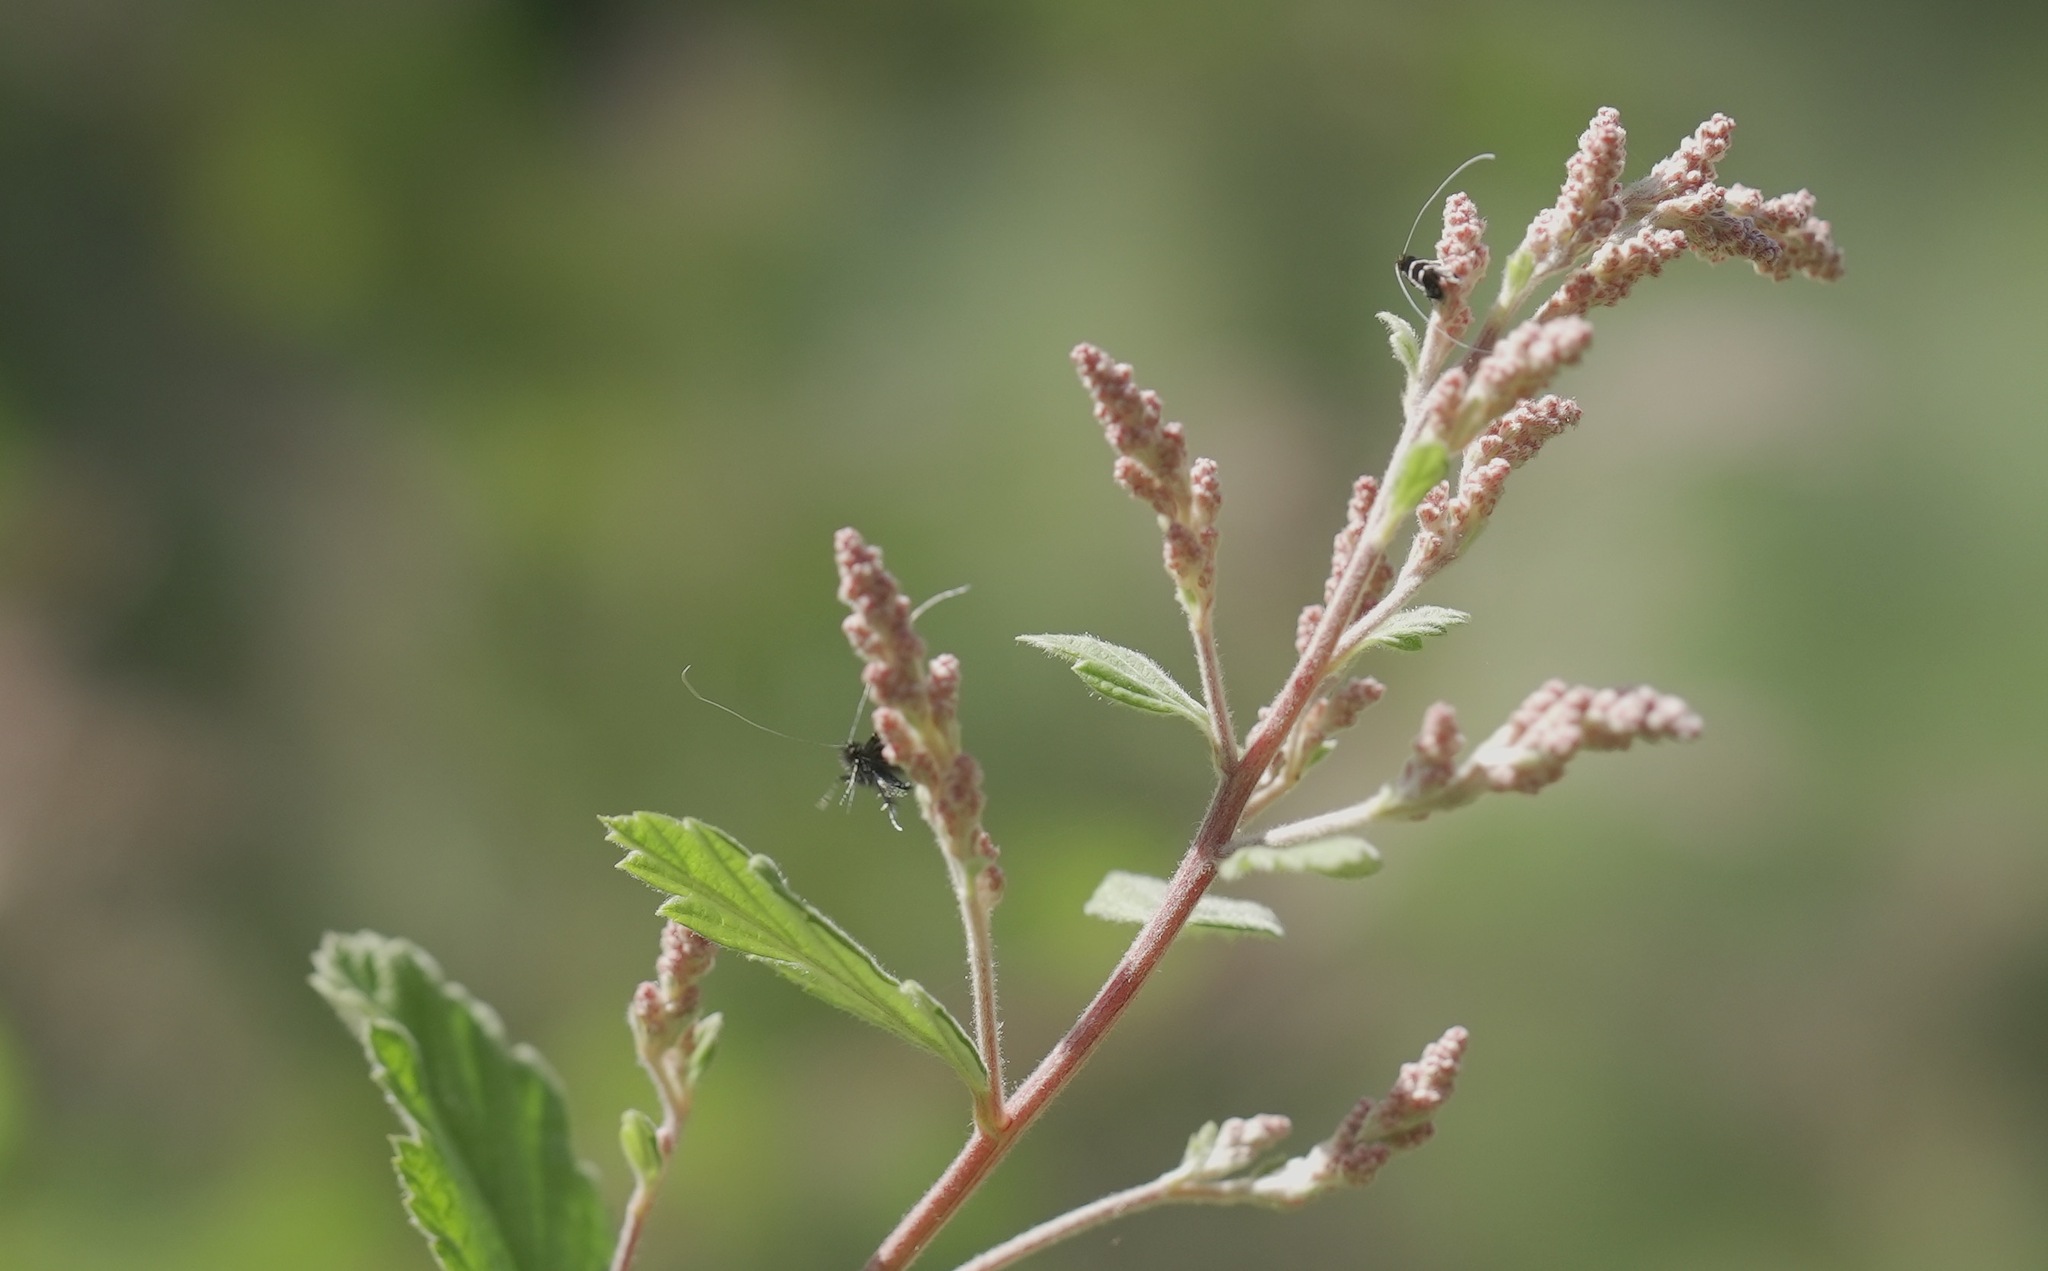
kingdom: Animalia
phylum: Arthropoda
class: Insecta
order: Lepidoptera
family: Adelidae
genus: Adela
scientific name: Adela septentrionella
